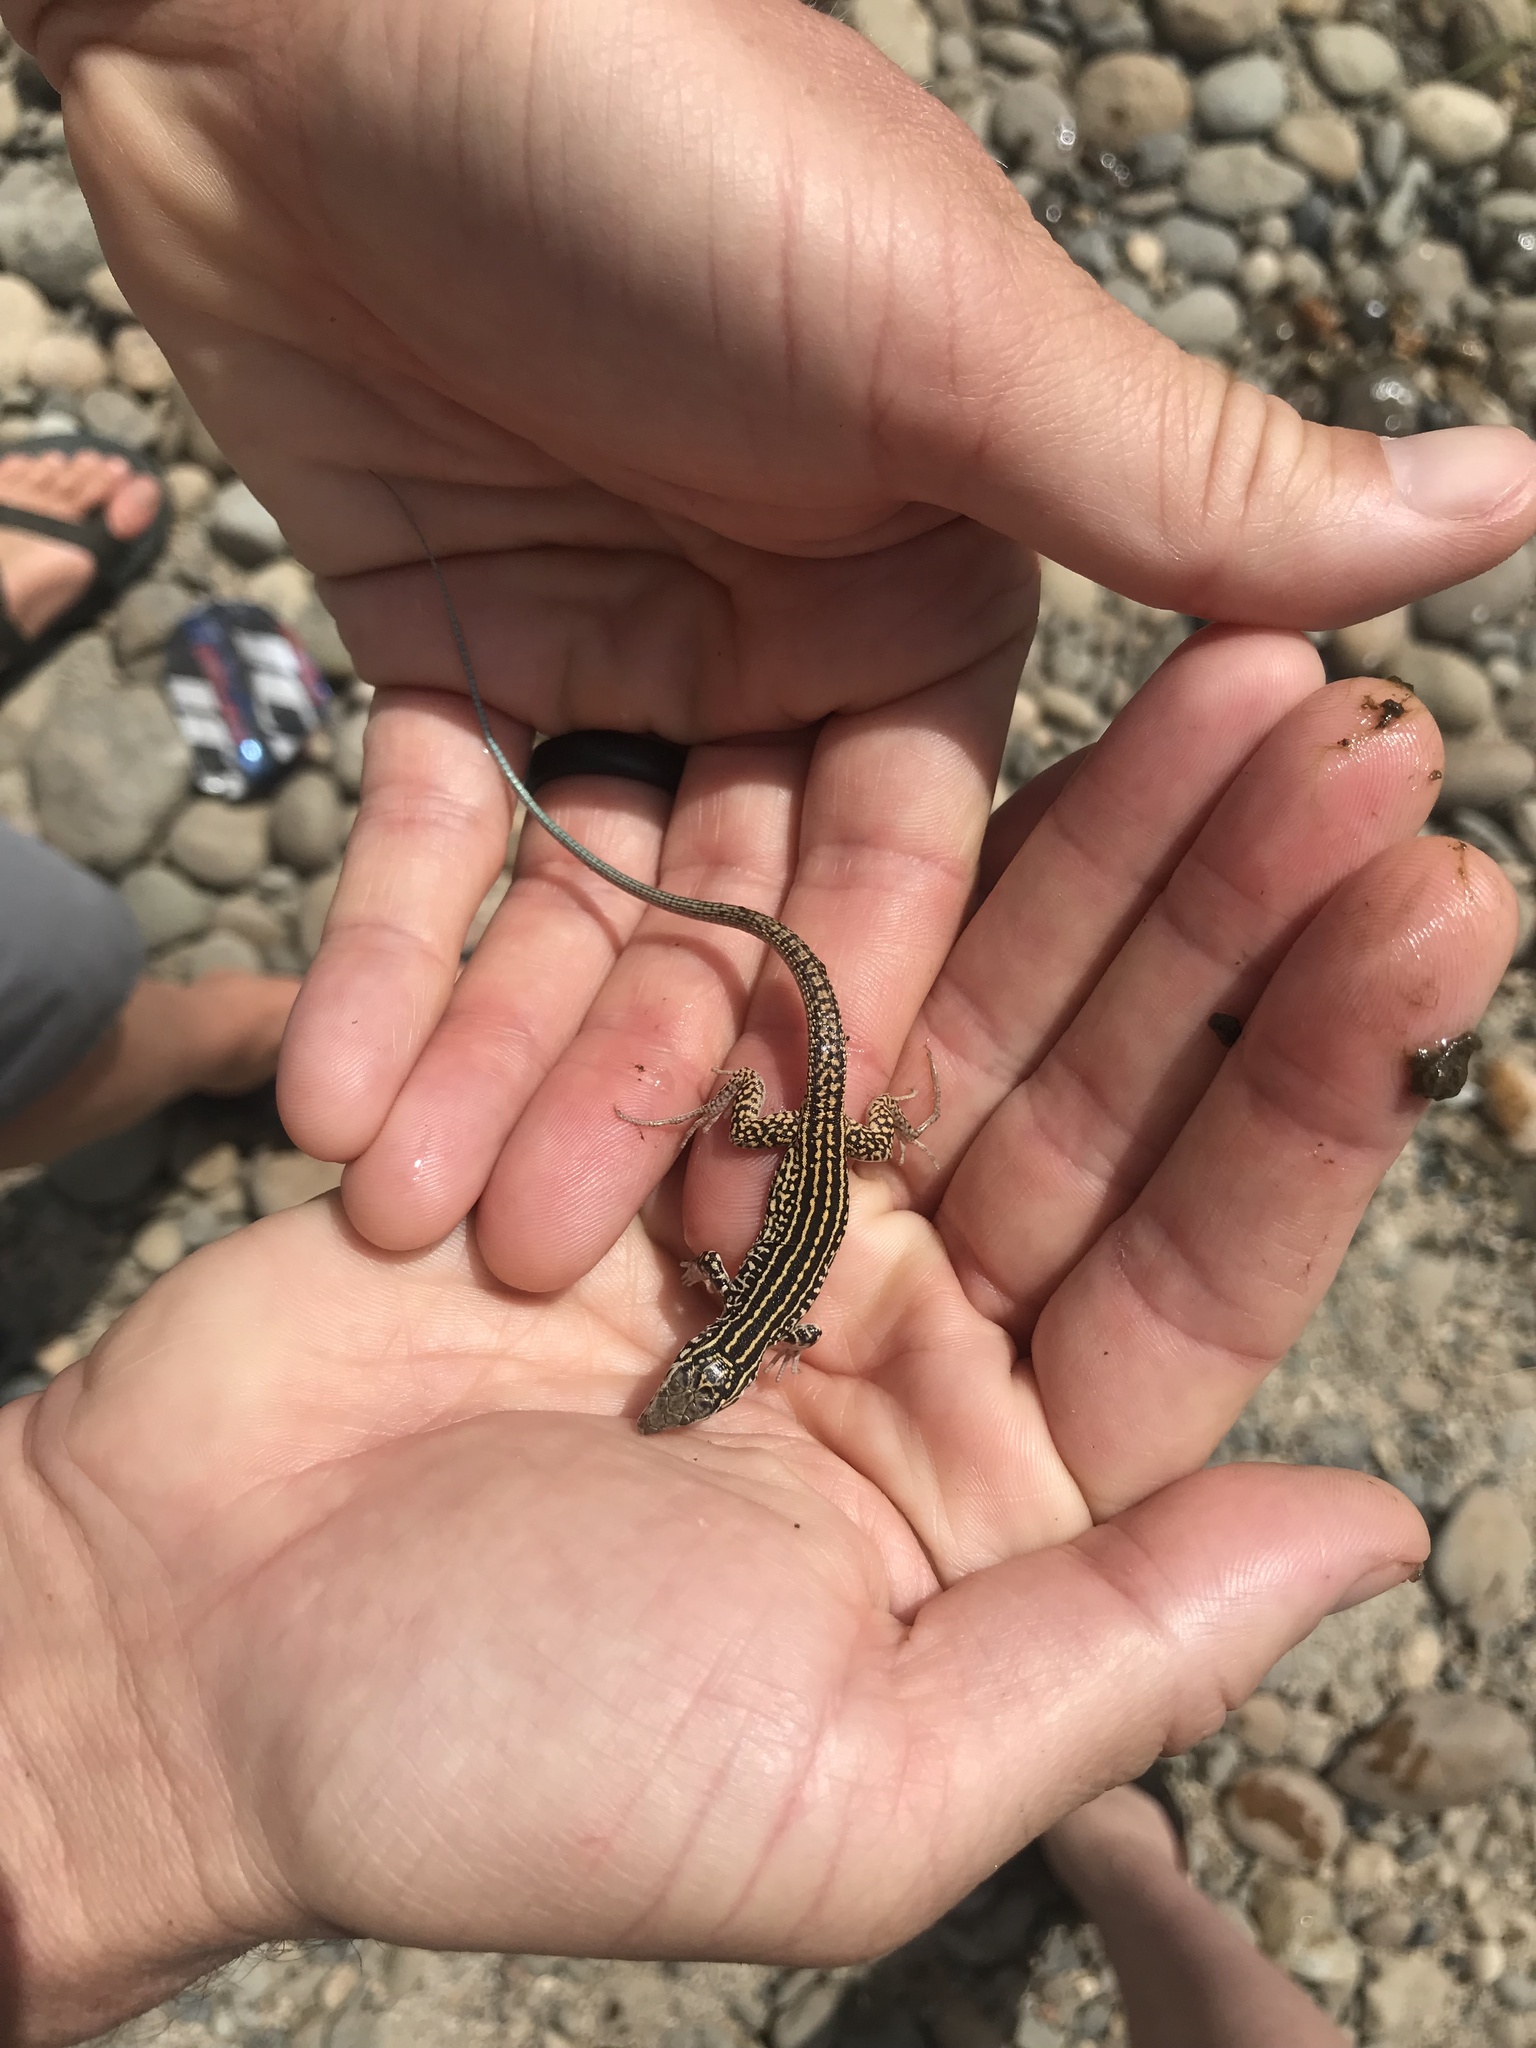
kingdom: Animalia
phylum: Chordata
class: Squamata
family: Teiidae
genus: Aspidoscelis
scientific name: Aspidoscelis tigris
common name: Tiger whiptail
